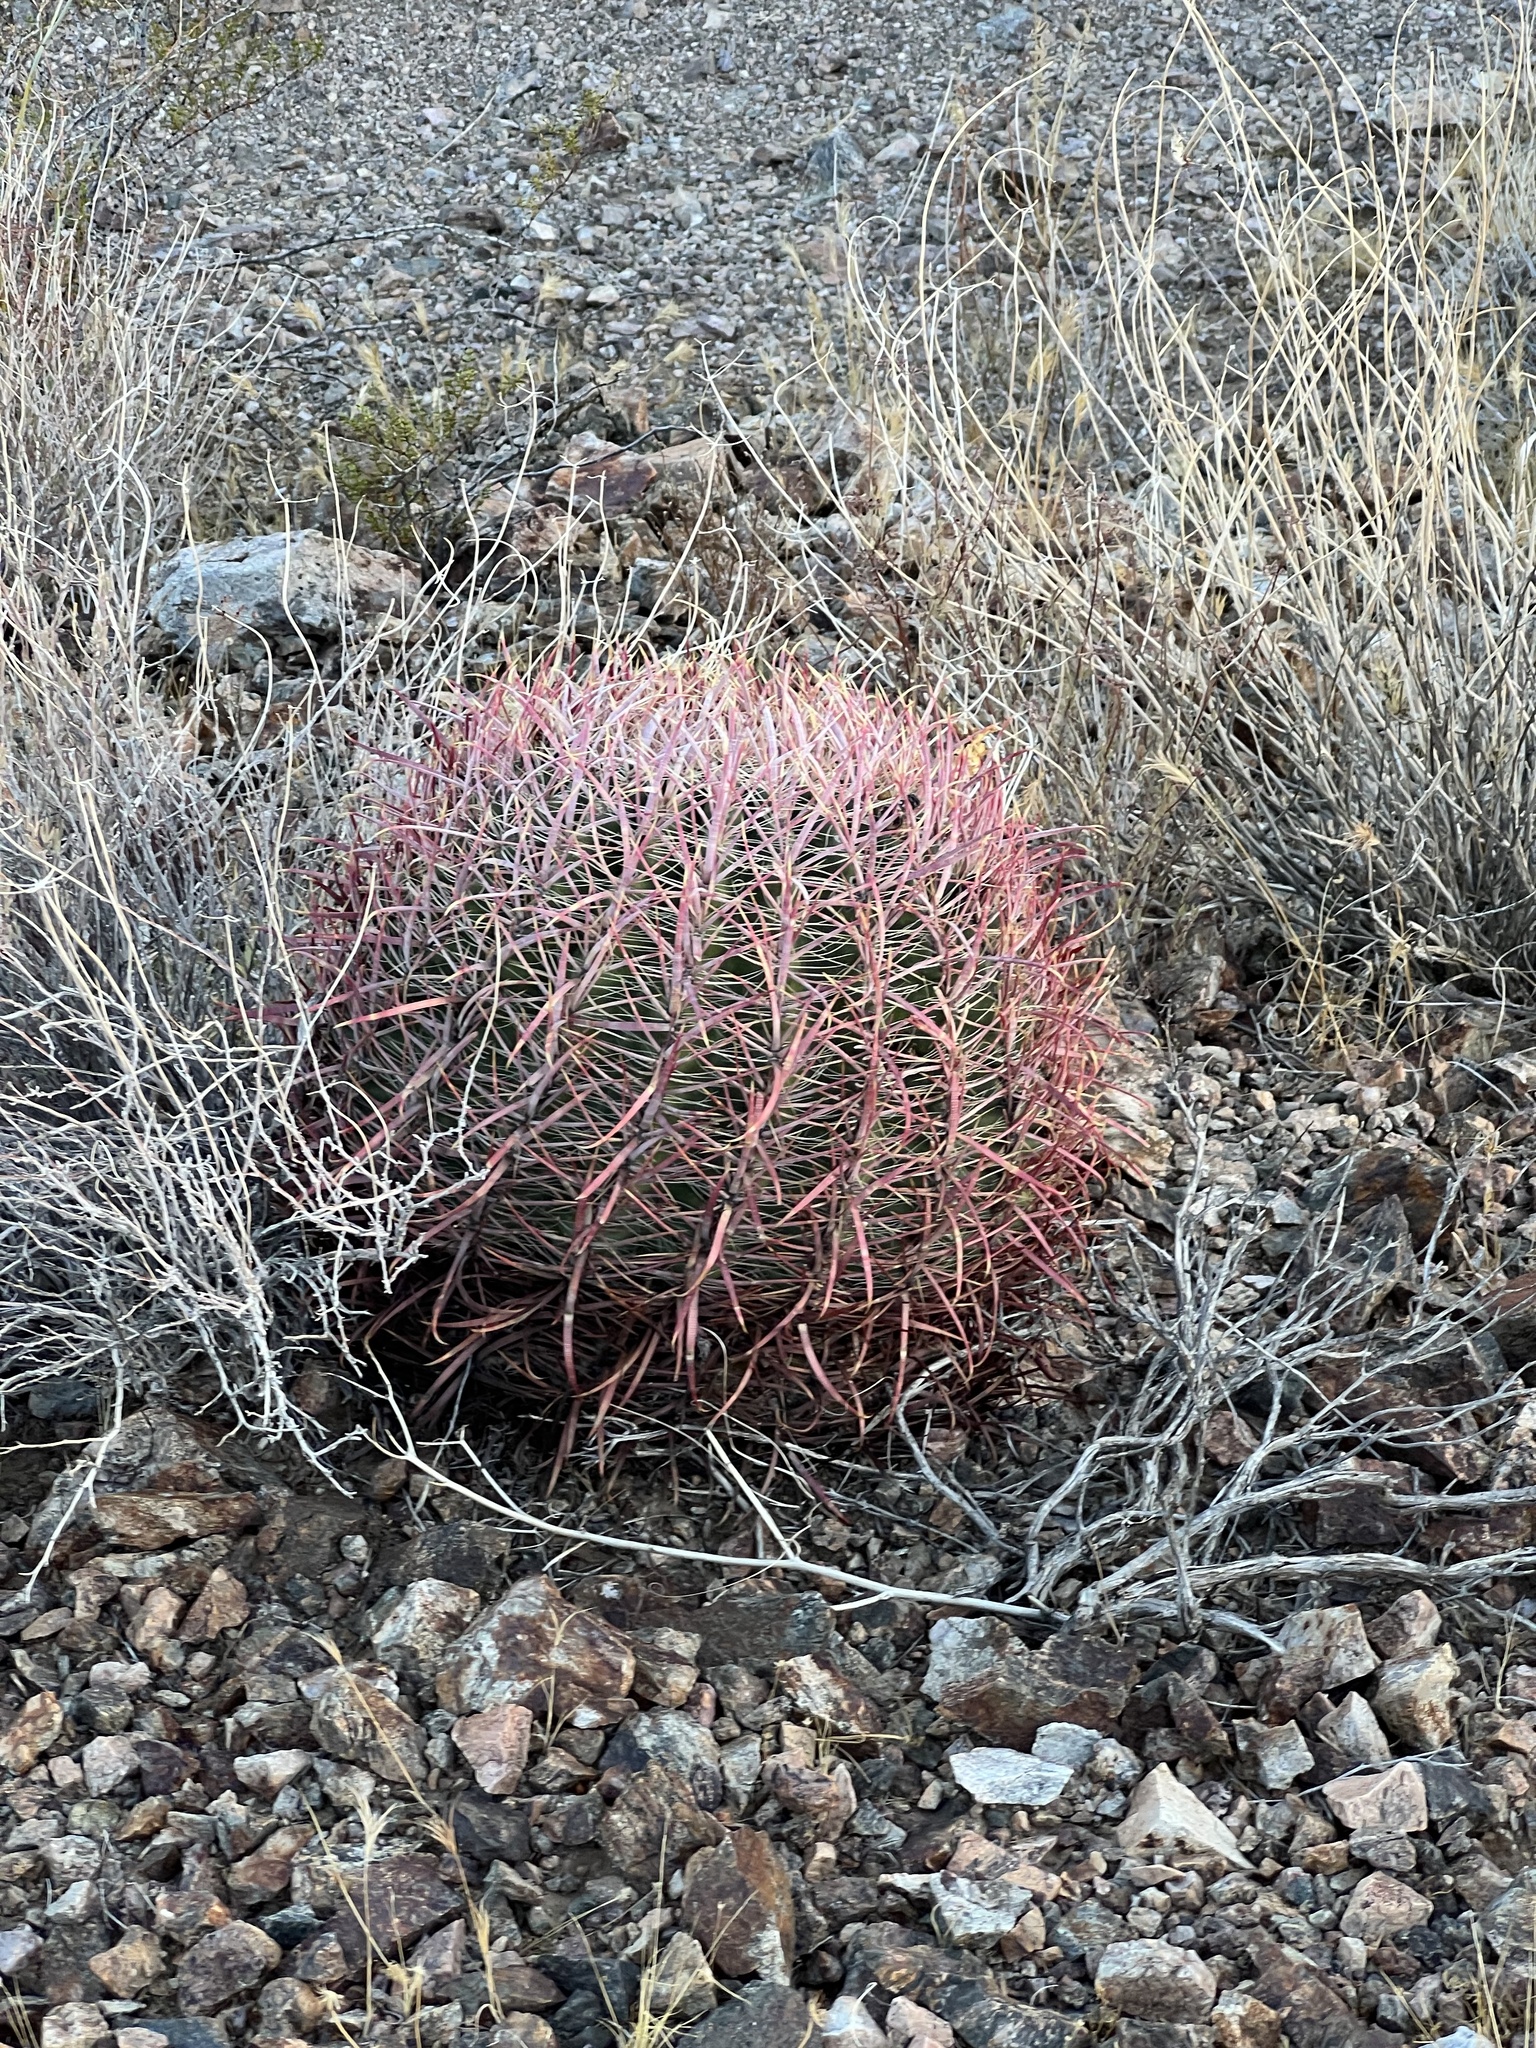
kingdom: Plantae
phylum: Tracheophyta
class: Magnoliopsida
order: Caryophyllales
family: Cactaceae
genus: Ferocactus
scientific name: Ferocactus cylindraceus
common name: California barrel cactus
